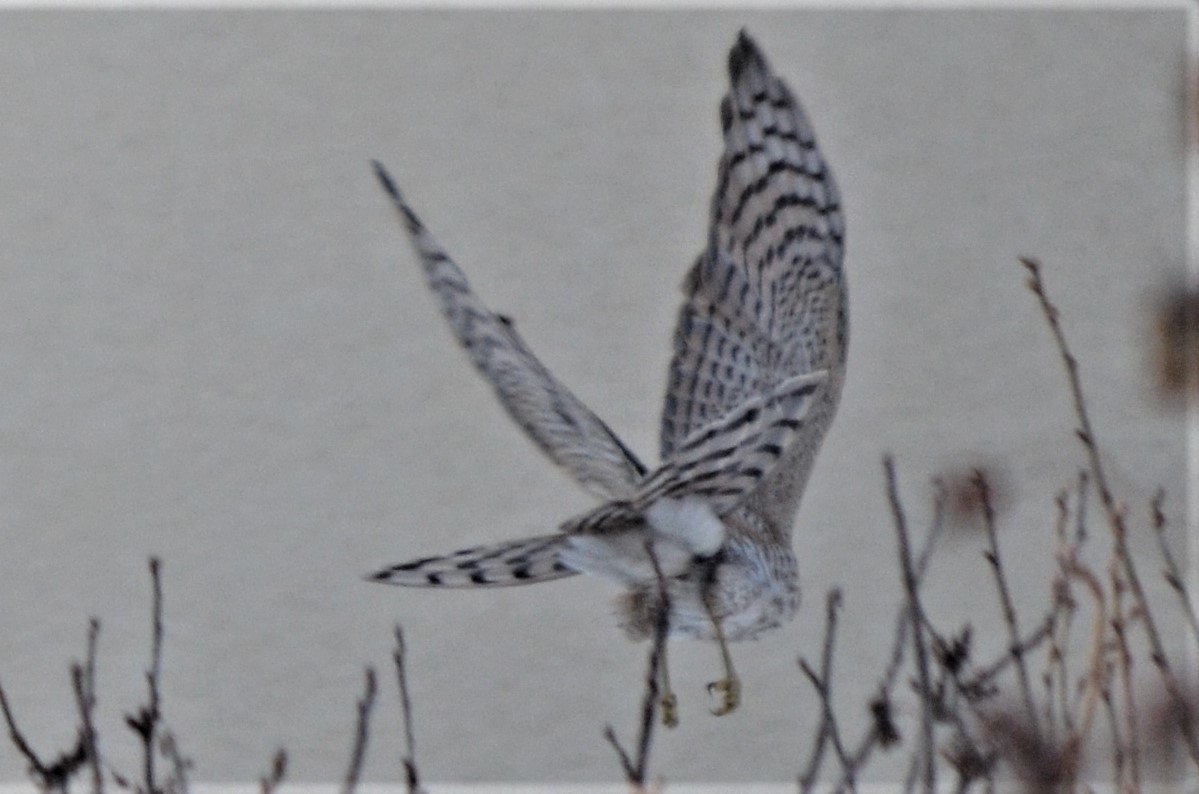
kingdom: Animalia
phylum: Chordata
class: Aves
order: Accipitriformes
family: Accipitridae
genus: Accipiter
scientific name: Accipiter nisus
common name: Eurasian sparrowhawk
